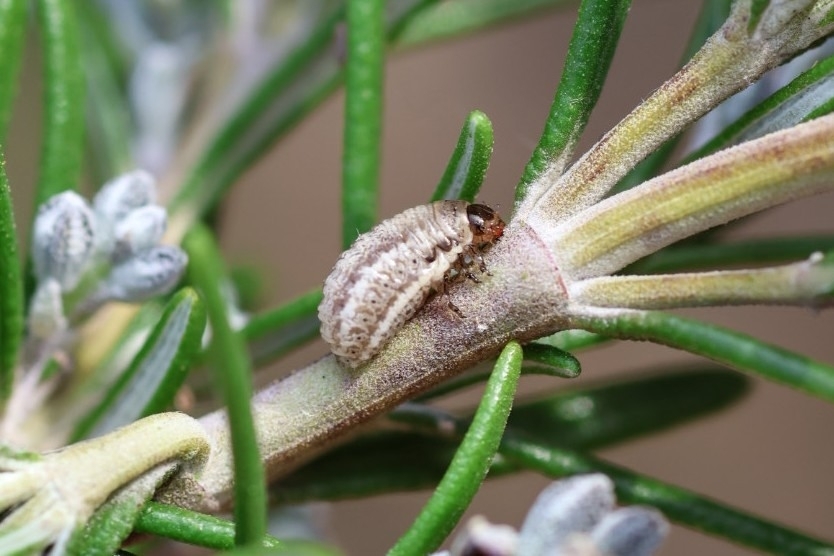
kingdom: Animalia
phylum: Arthropoda
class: Insecta
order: Coleoptera
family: Chrysomelidae
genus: Chrysolina
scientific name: Chrysolina americana
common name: Rosemary beetle
